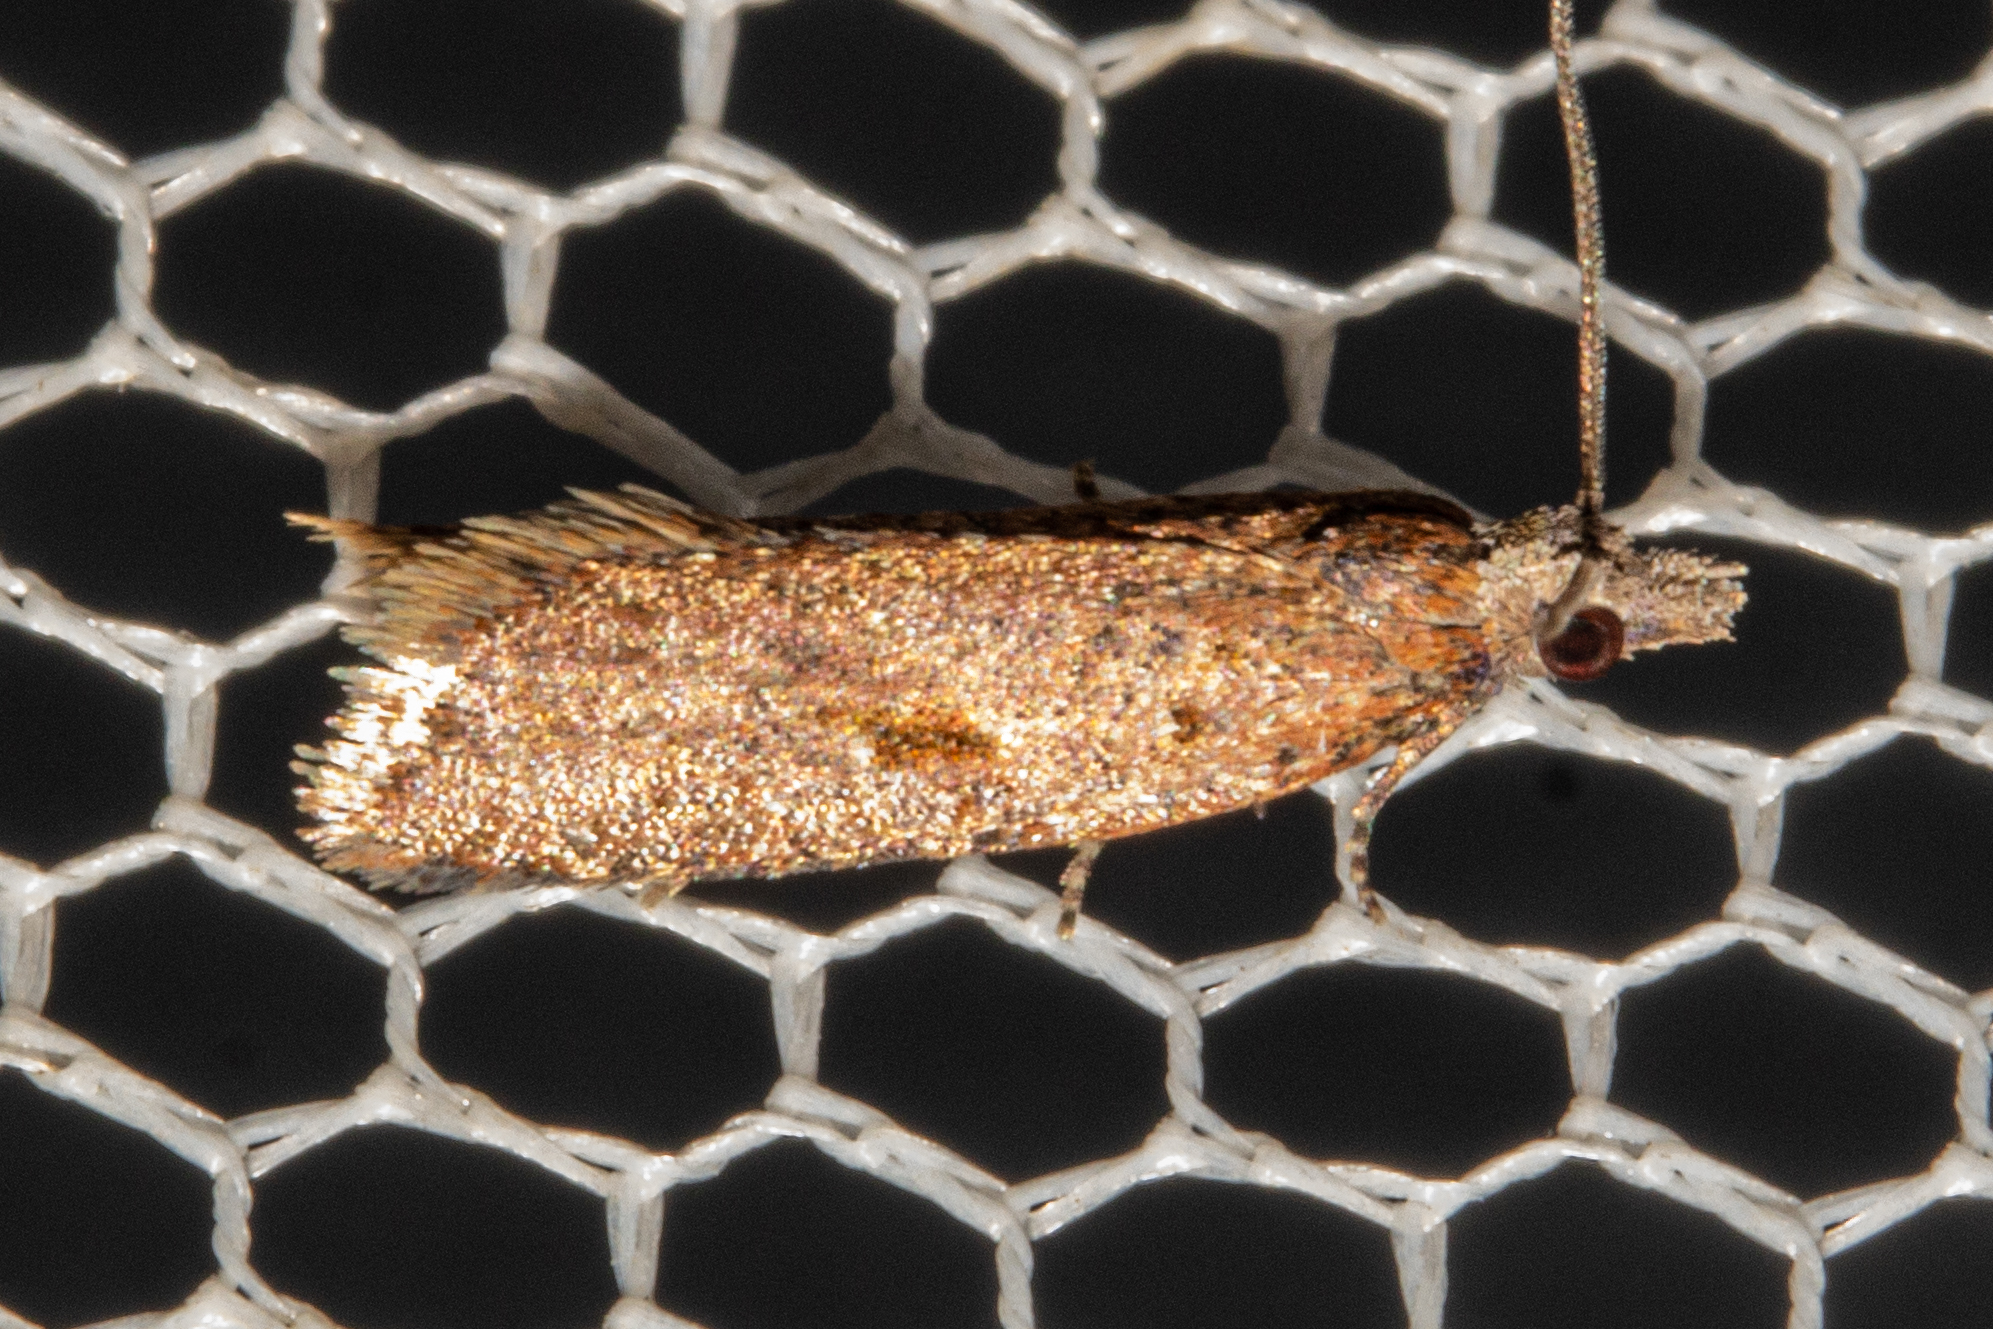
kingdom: Animalia
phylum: Arthropoda
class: Insecta
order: Lepidoptera
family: Tortricidae
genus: Capua
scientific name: Capua semiferana
